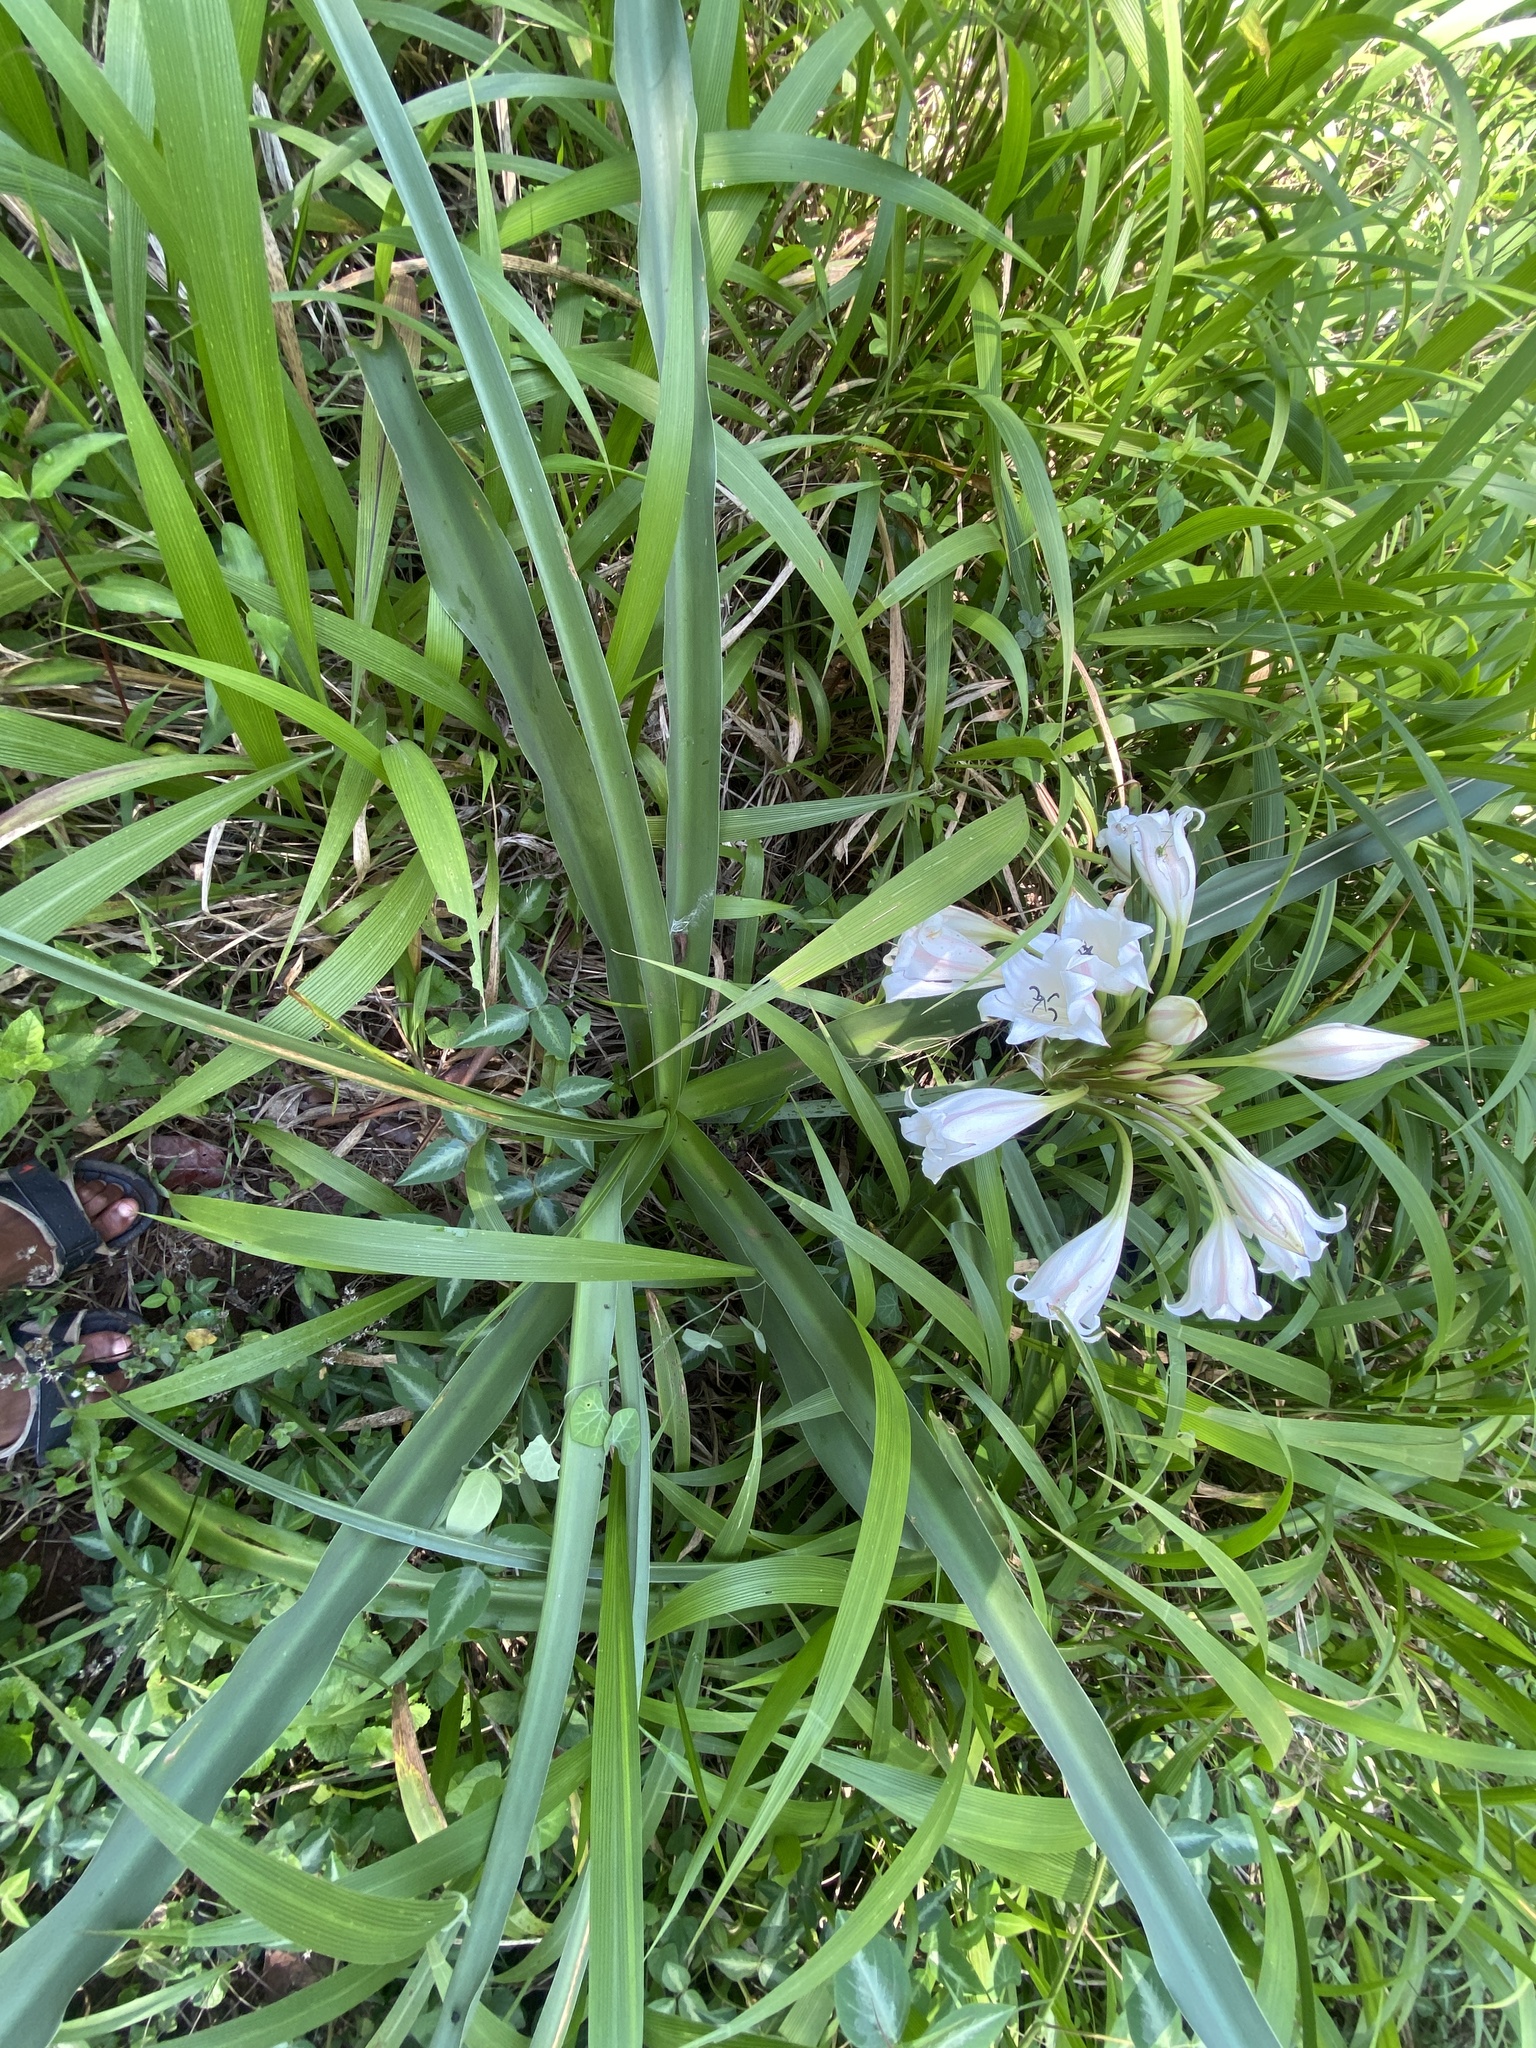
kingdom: Plantae
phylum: Tracheophyta
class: Liliopsida
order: Asparagales
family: Amaryllidaceae
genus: Crinum
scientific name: Crinum macowanii
